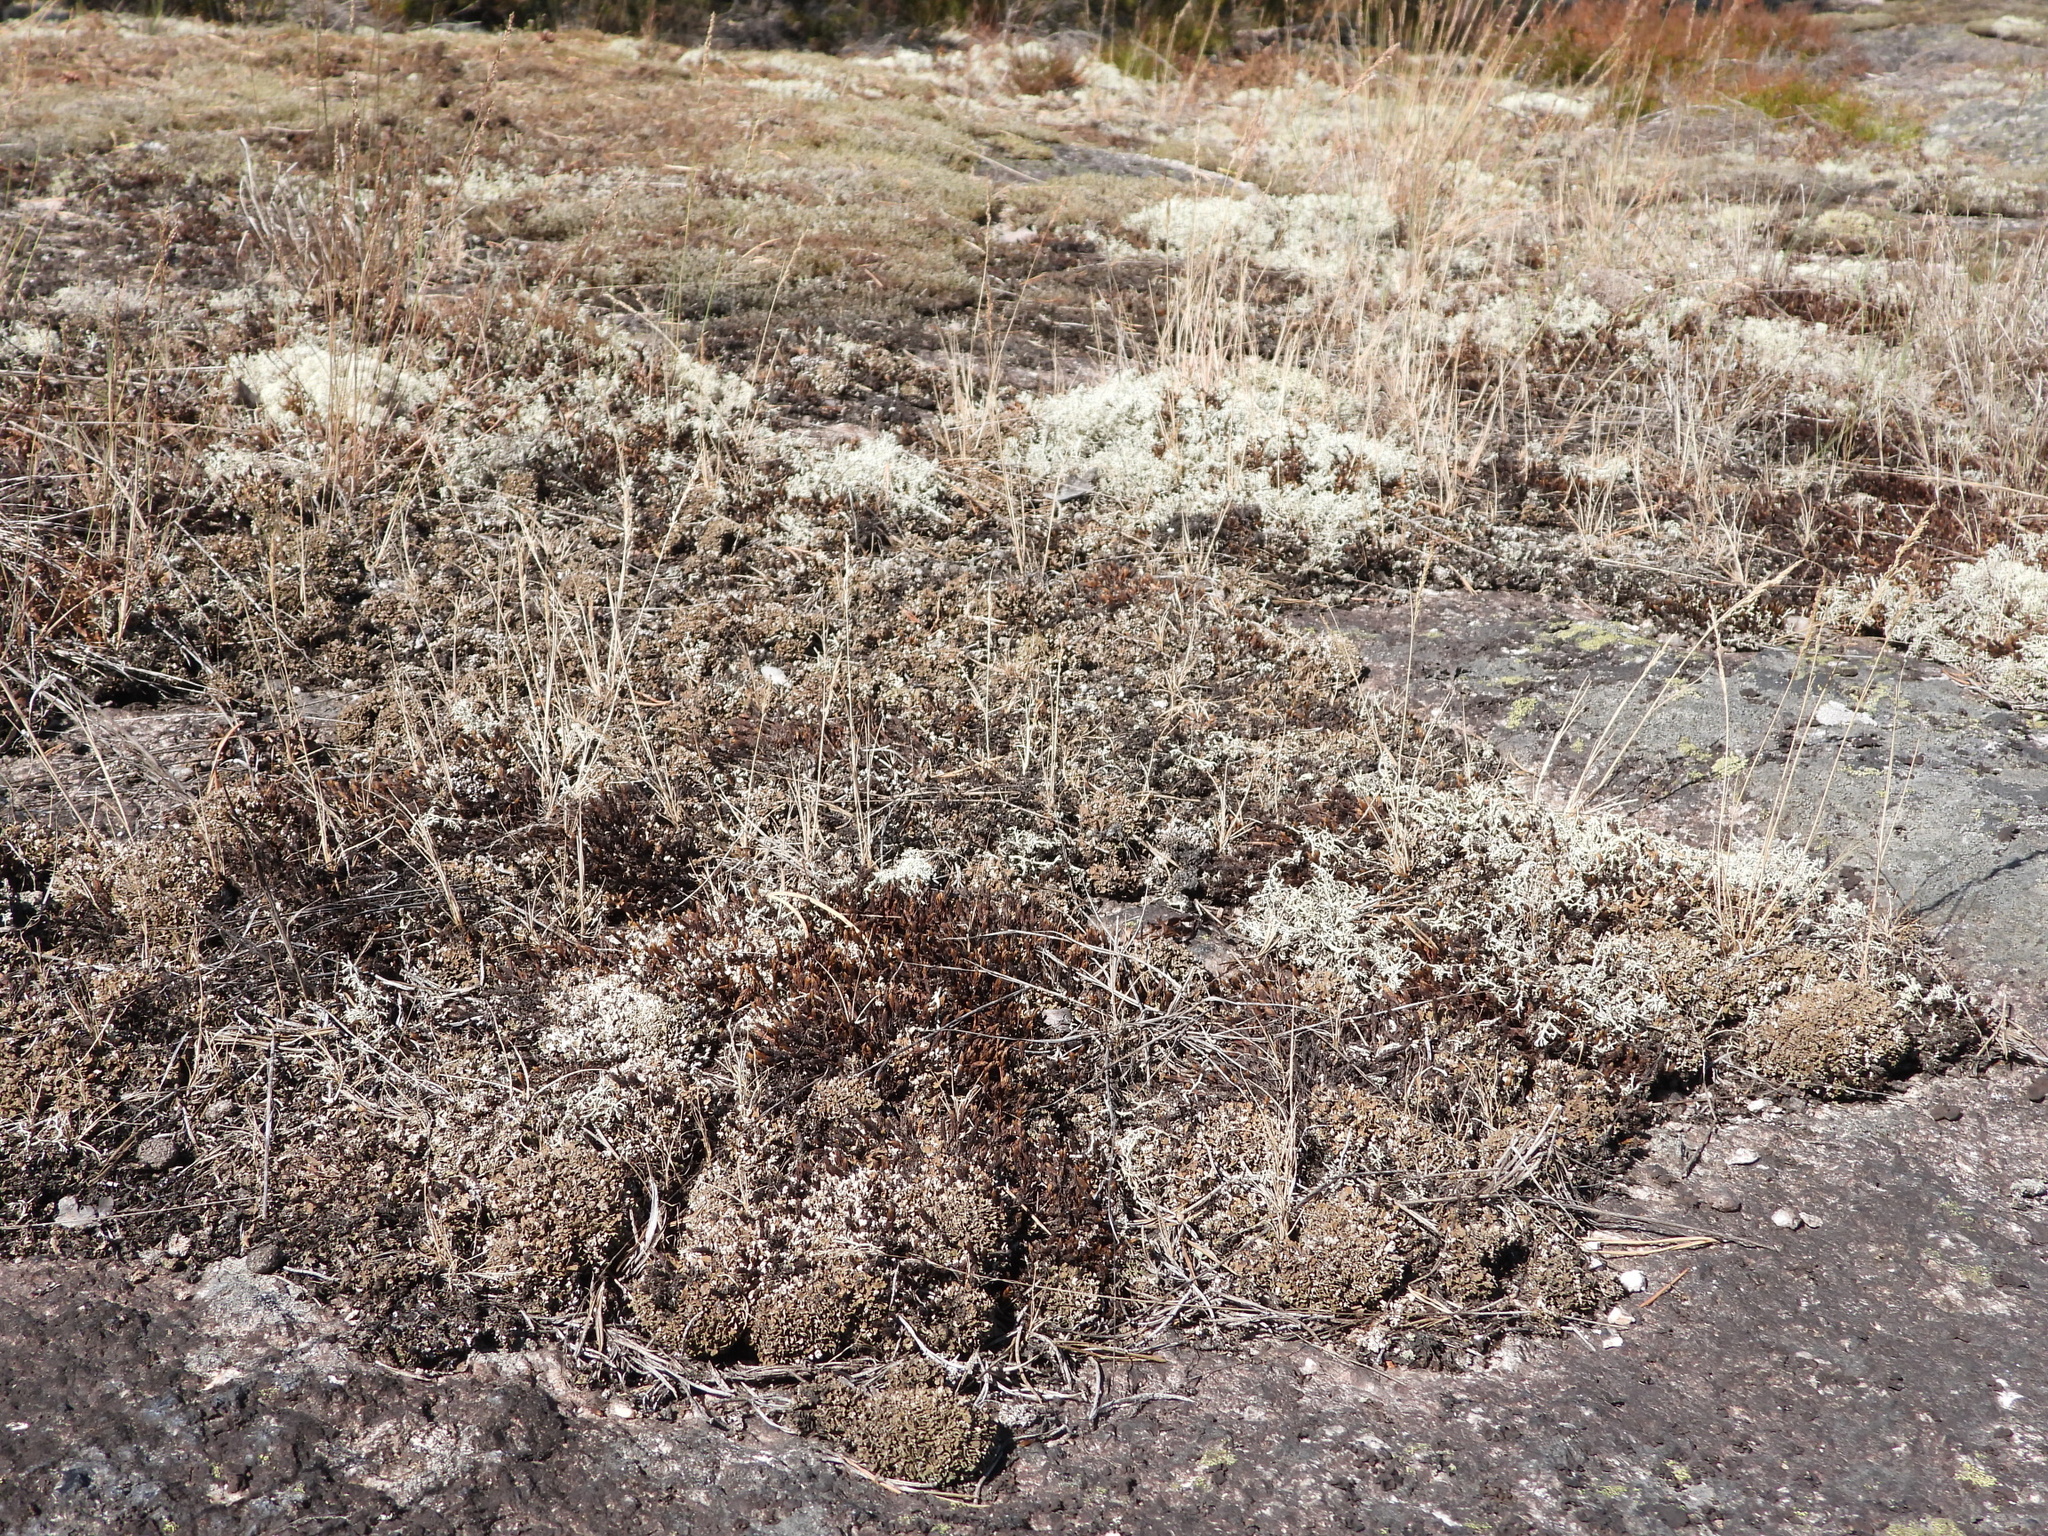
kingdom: Fungi
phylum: Ascomycota
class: Lecanoromycetes
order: Lecanorales
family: Cladoniaceae
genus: Cladonia
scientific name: Cladonia strepsilis
